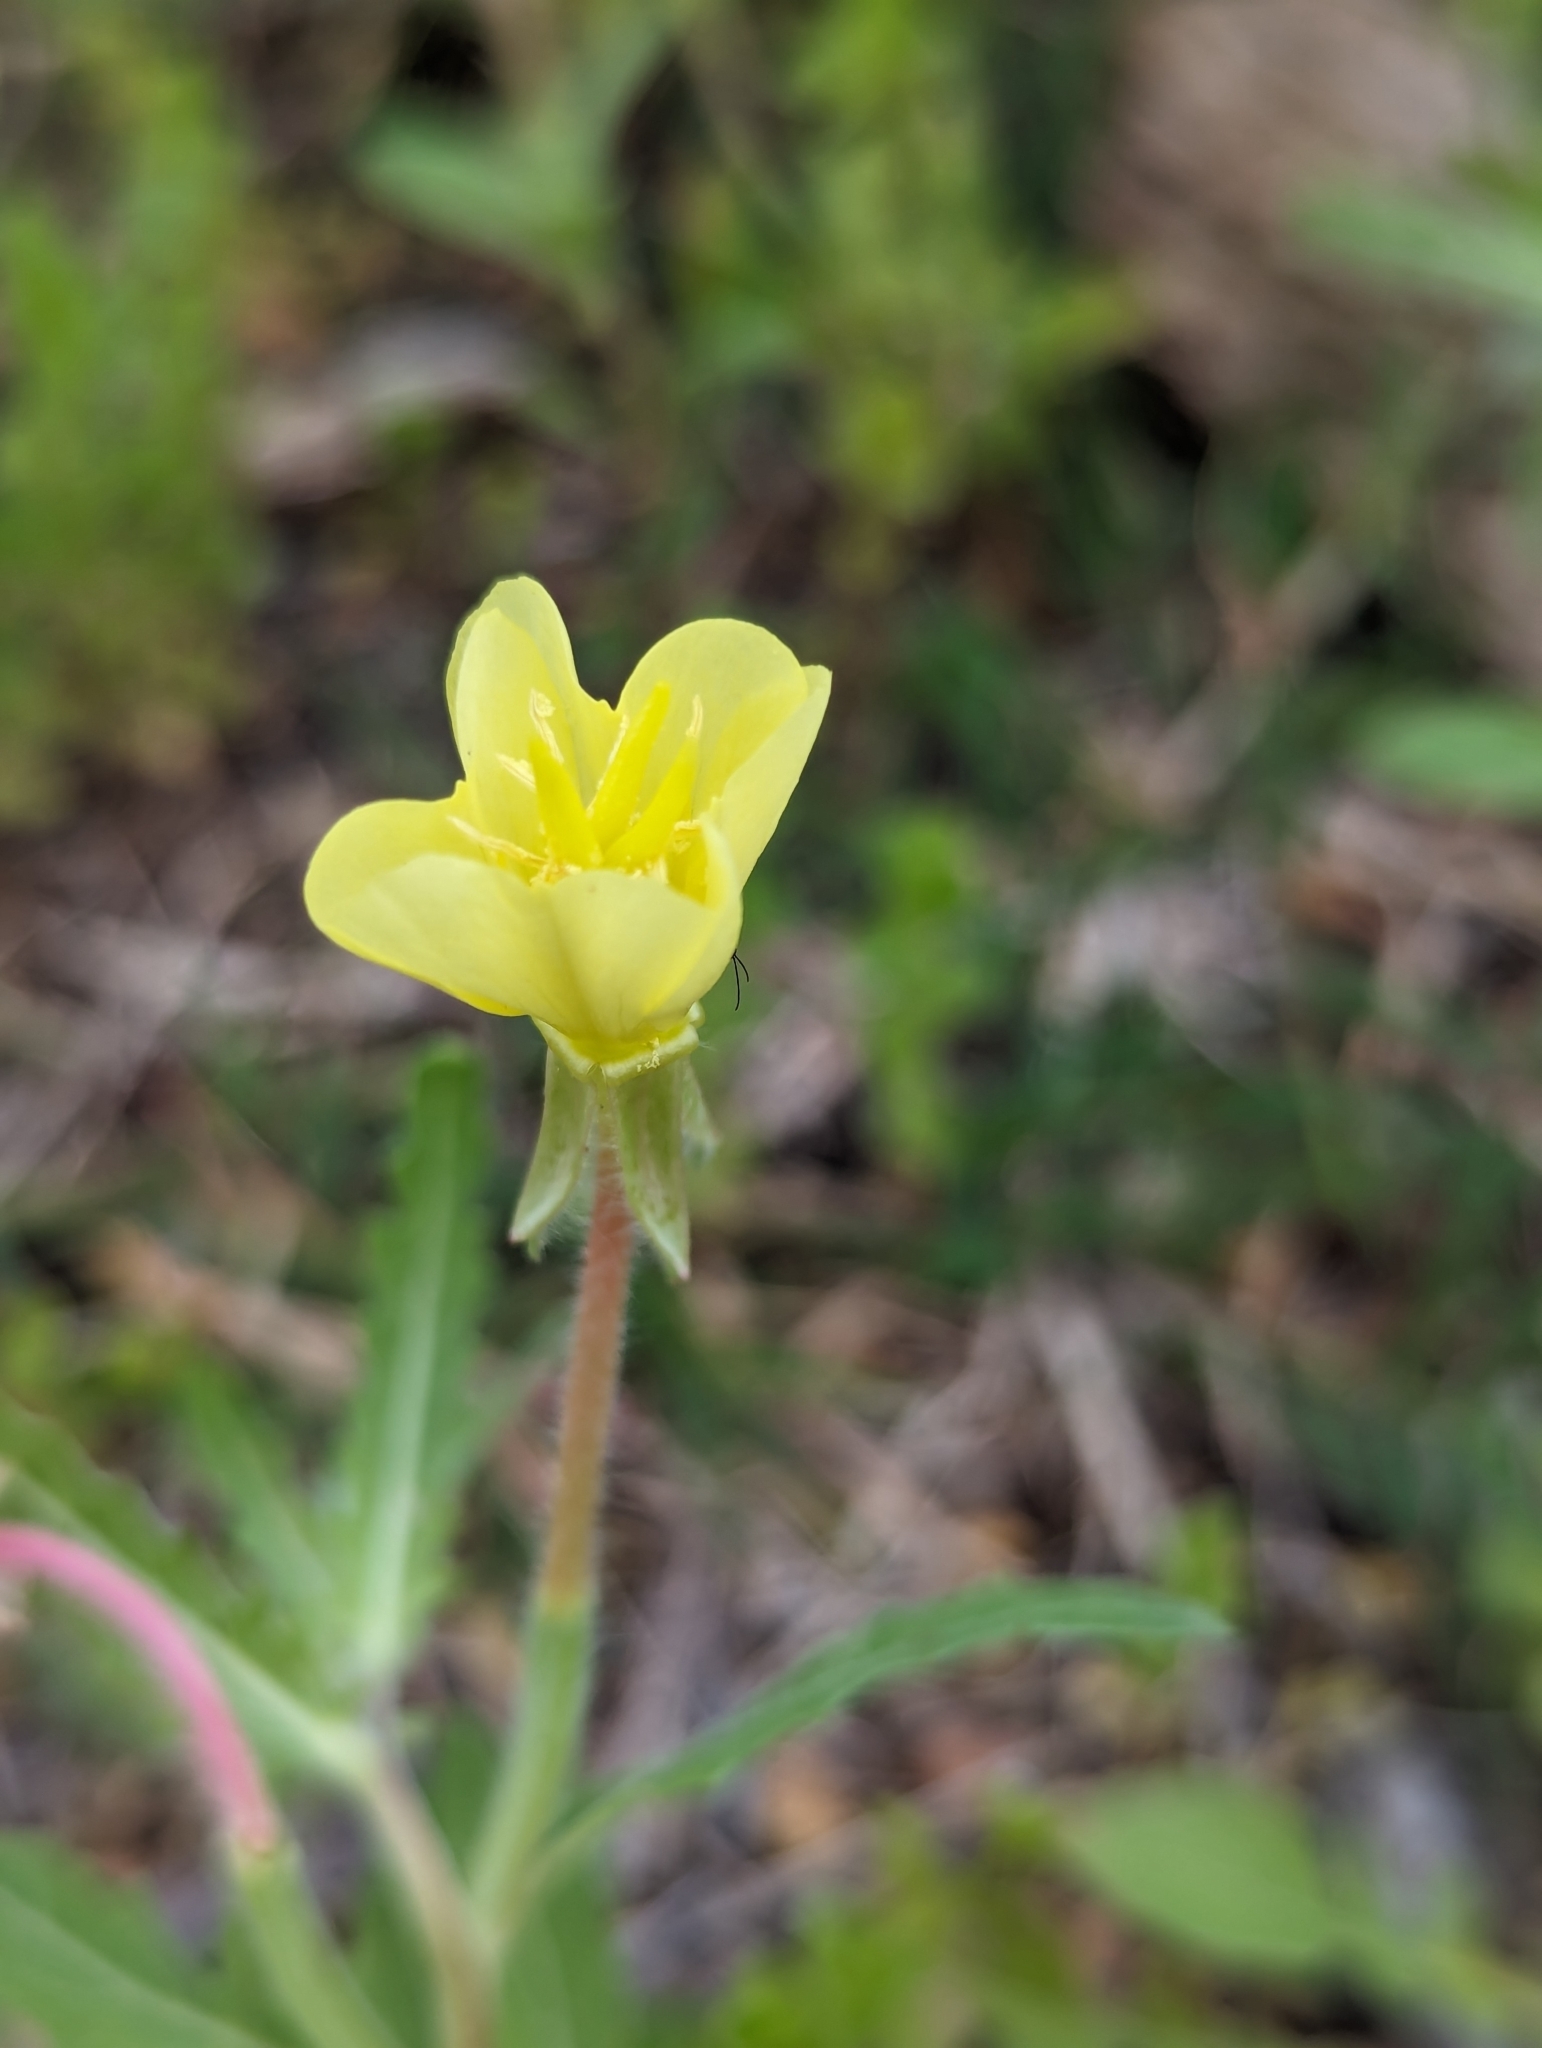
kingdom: Plantae
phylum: Tracheophyta
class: Magnoliopsida
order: Myrtales
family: Onagraceae
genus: Oenothera
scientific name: Oenothera laciniata
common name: Cut-leaved evening-primrose
